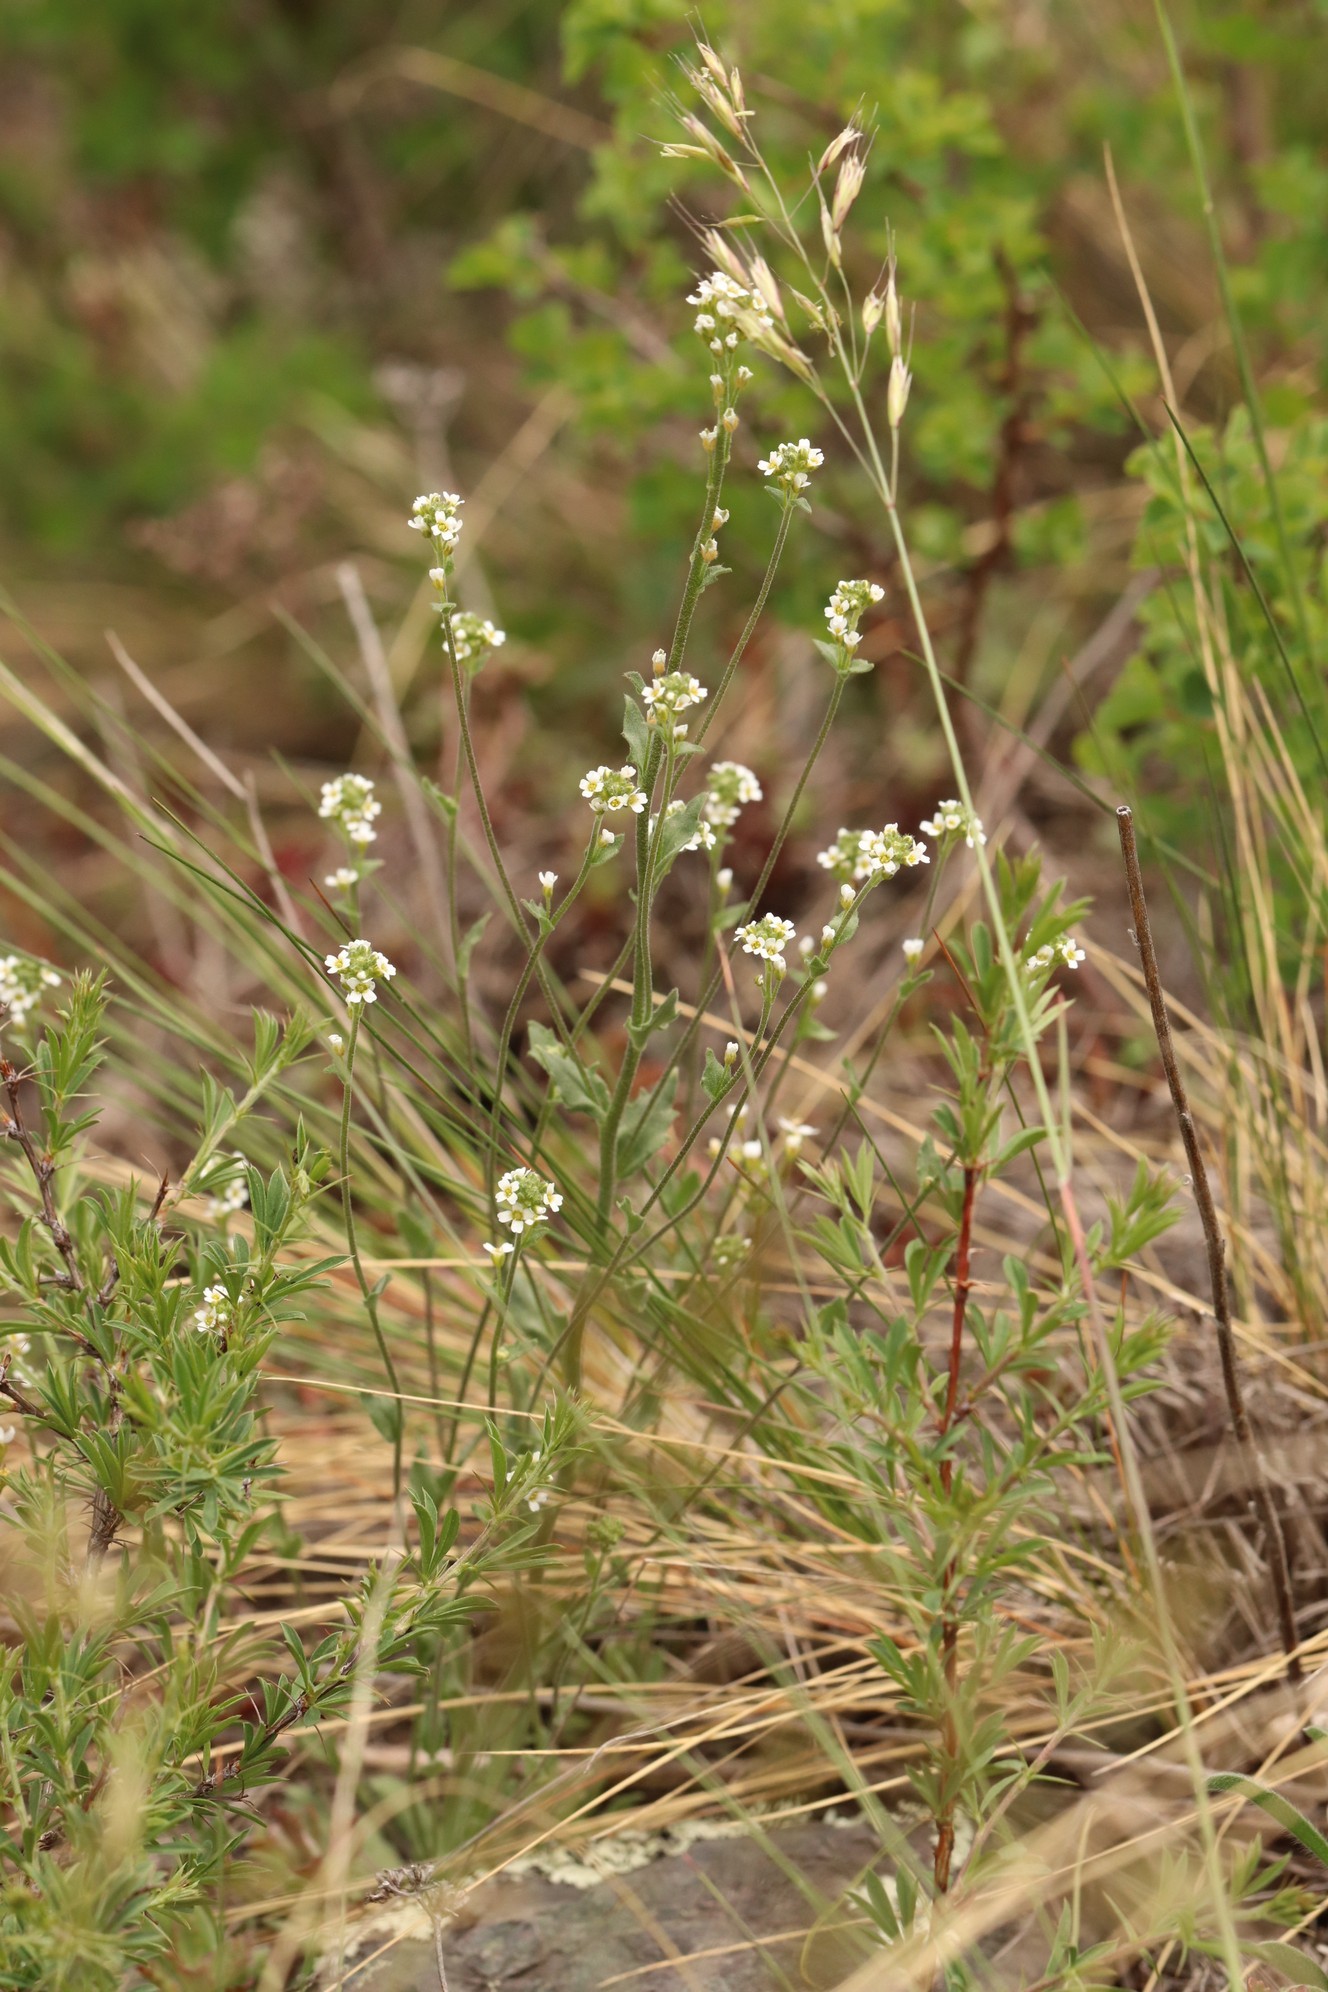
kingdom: Plantae
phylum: Tracheophyta
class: Magnoliopsida
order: Brassicales
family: Brassicaceae
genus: Draba
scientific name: Draba lanceolata
